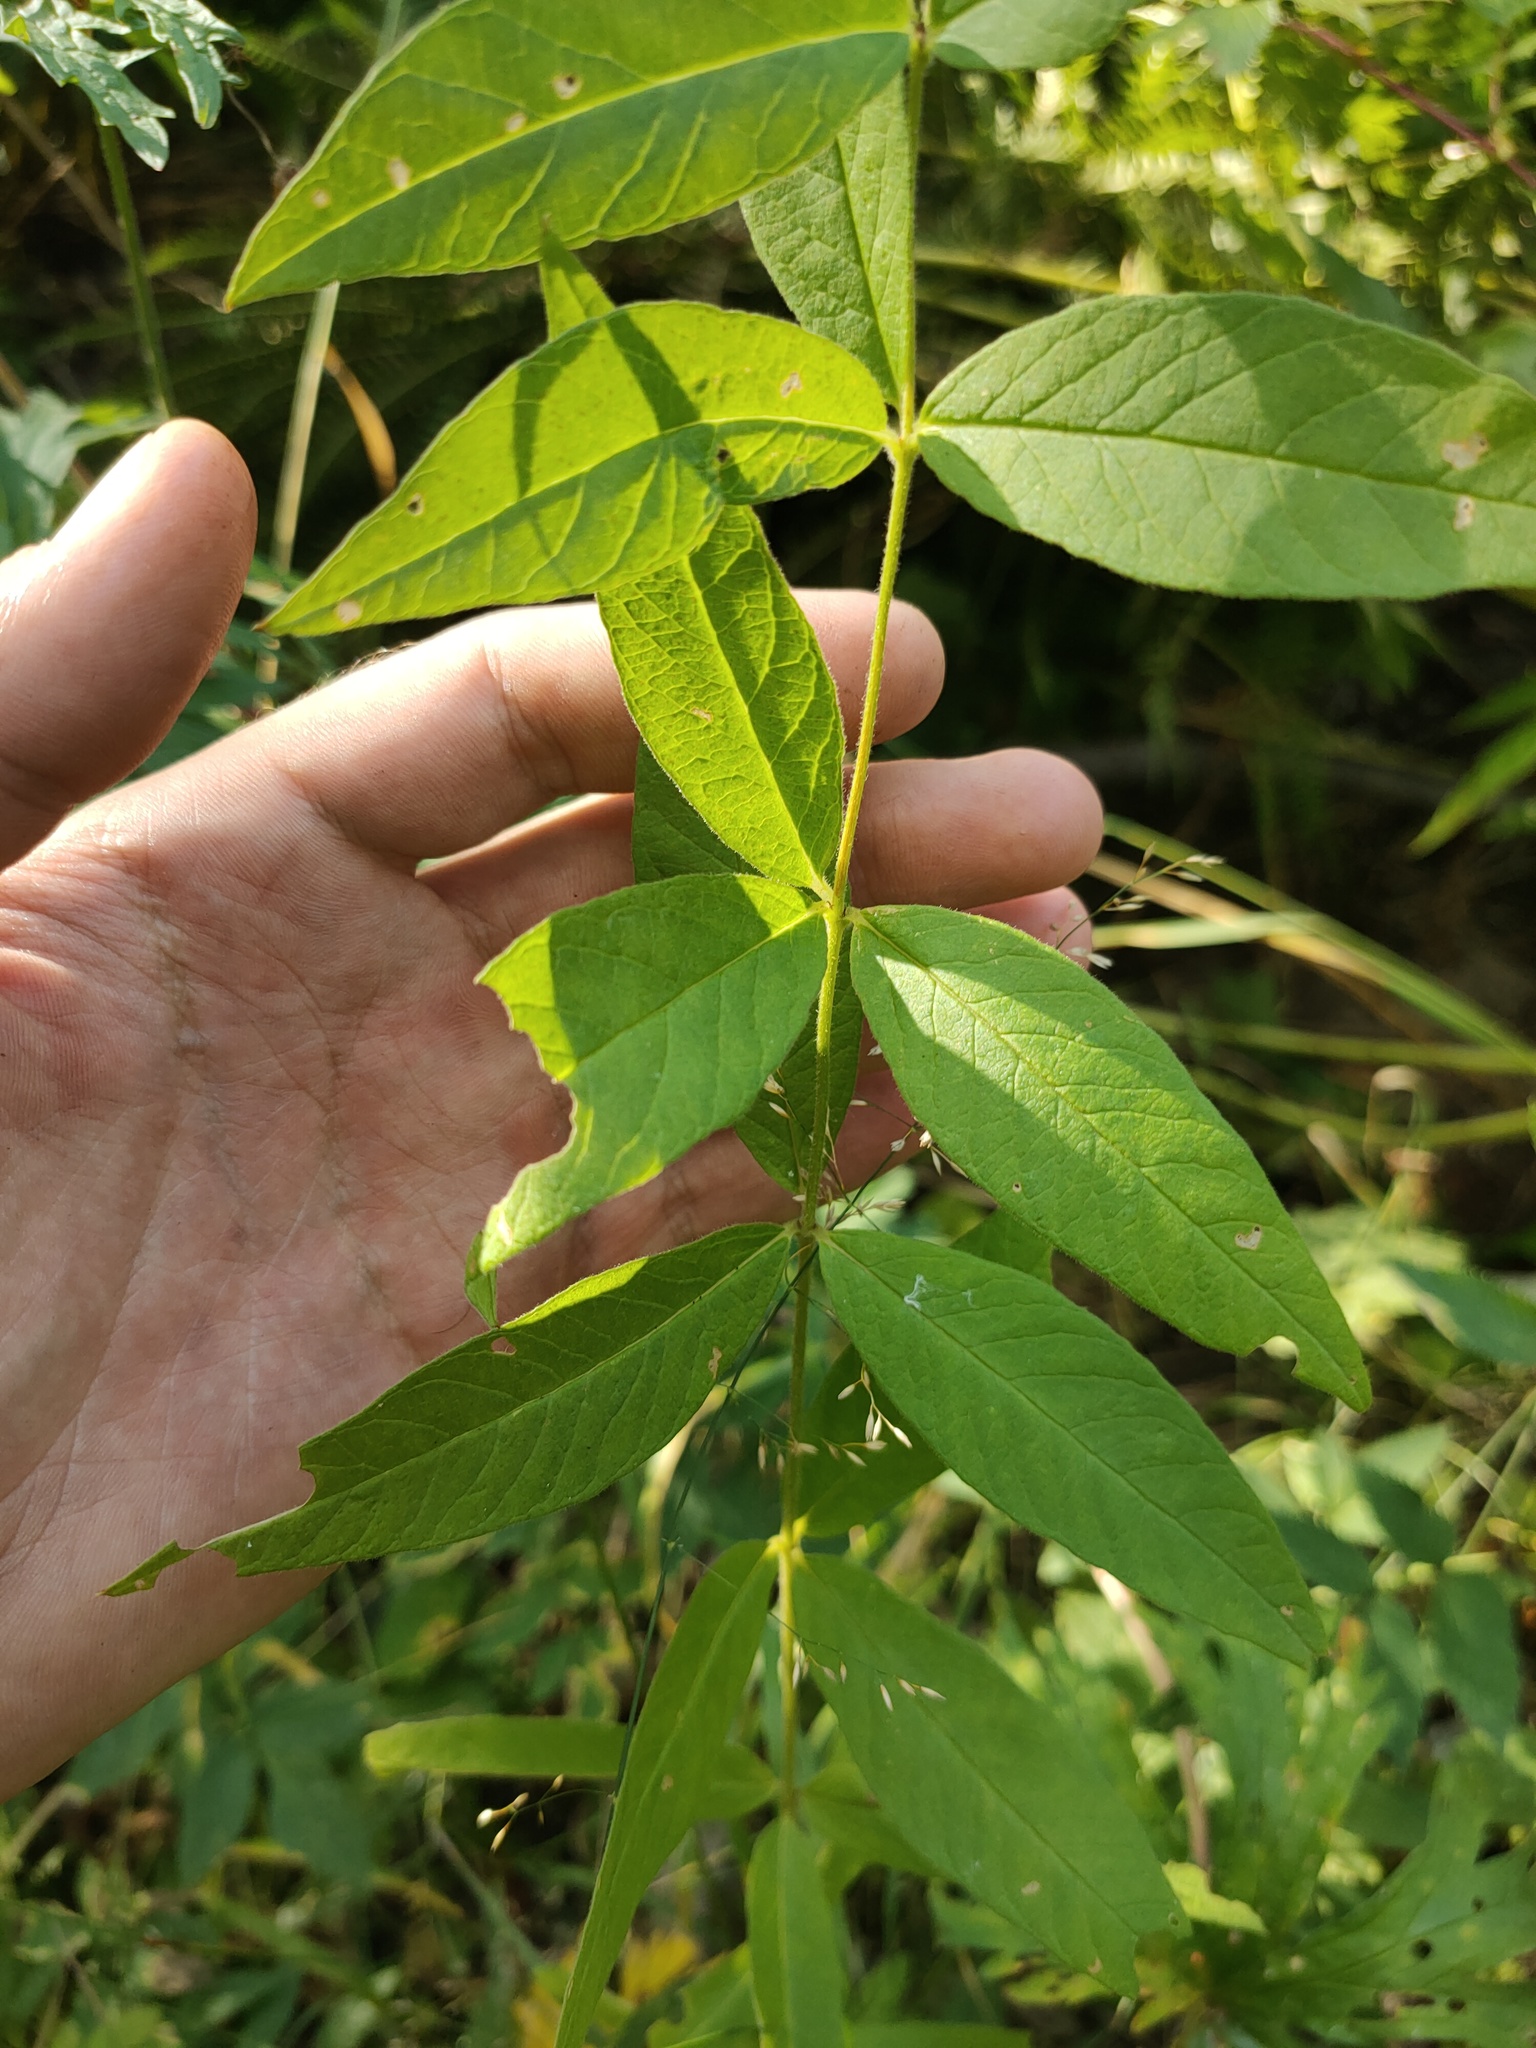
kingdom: Plantae
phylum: Tracheophyta
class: Magnoliopsida
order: Ericales
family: Primulaceae
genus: Lysimachia
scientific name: Lysimachia vulgaris
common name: Yellow loosestrife
